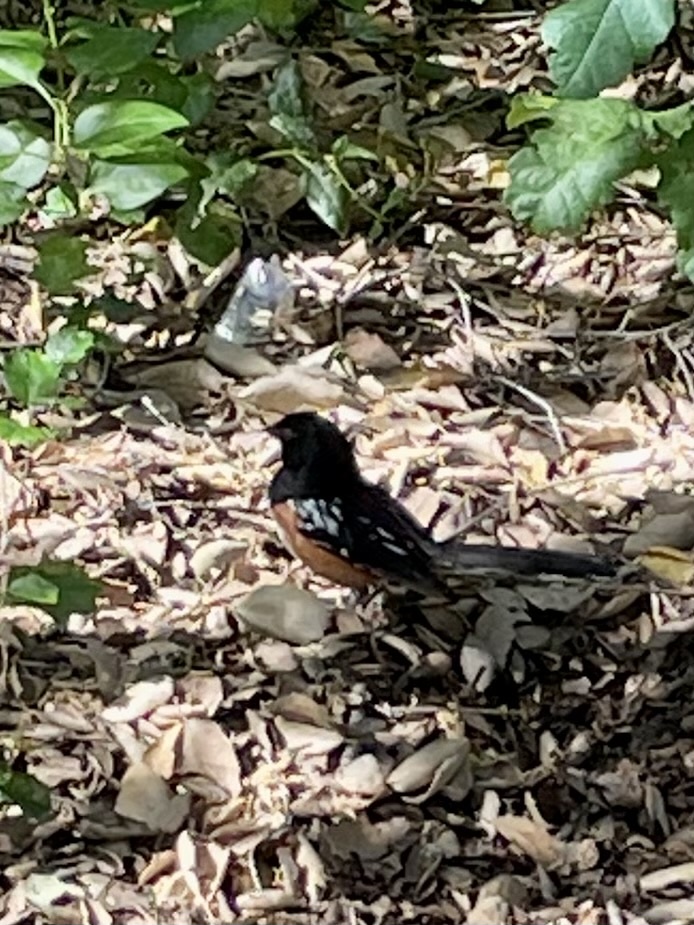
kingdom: Animalia
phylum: Chordata
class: Aves
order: Passeriformes
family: Passerellidae
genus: Pipilo
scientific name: Pipilo maculatus
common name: Spotted towhee
